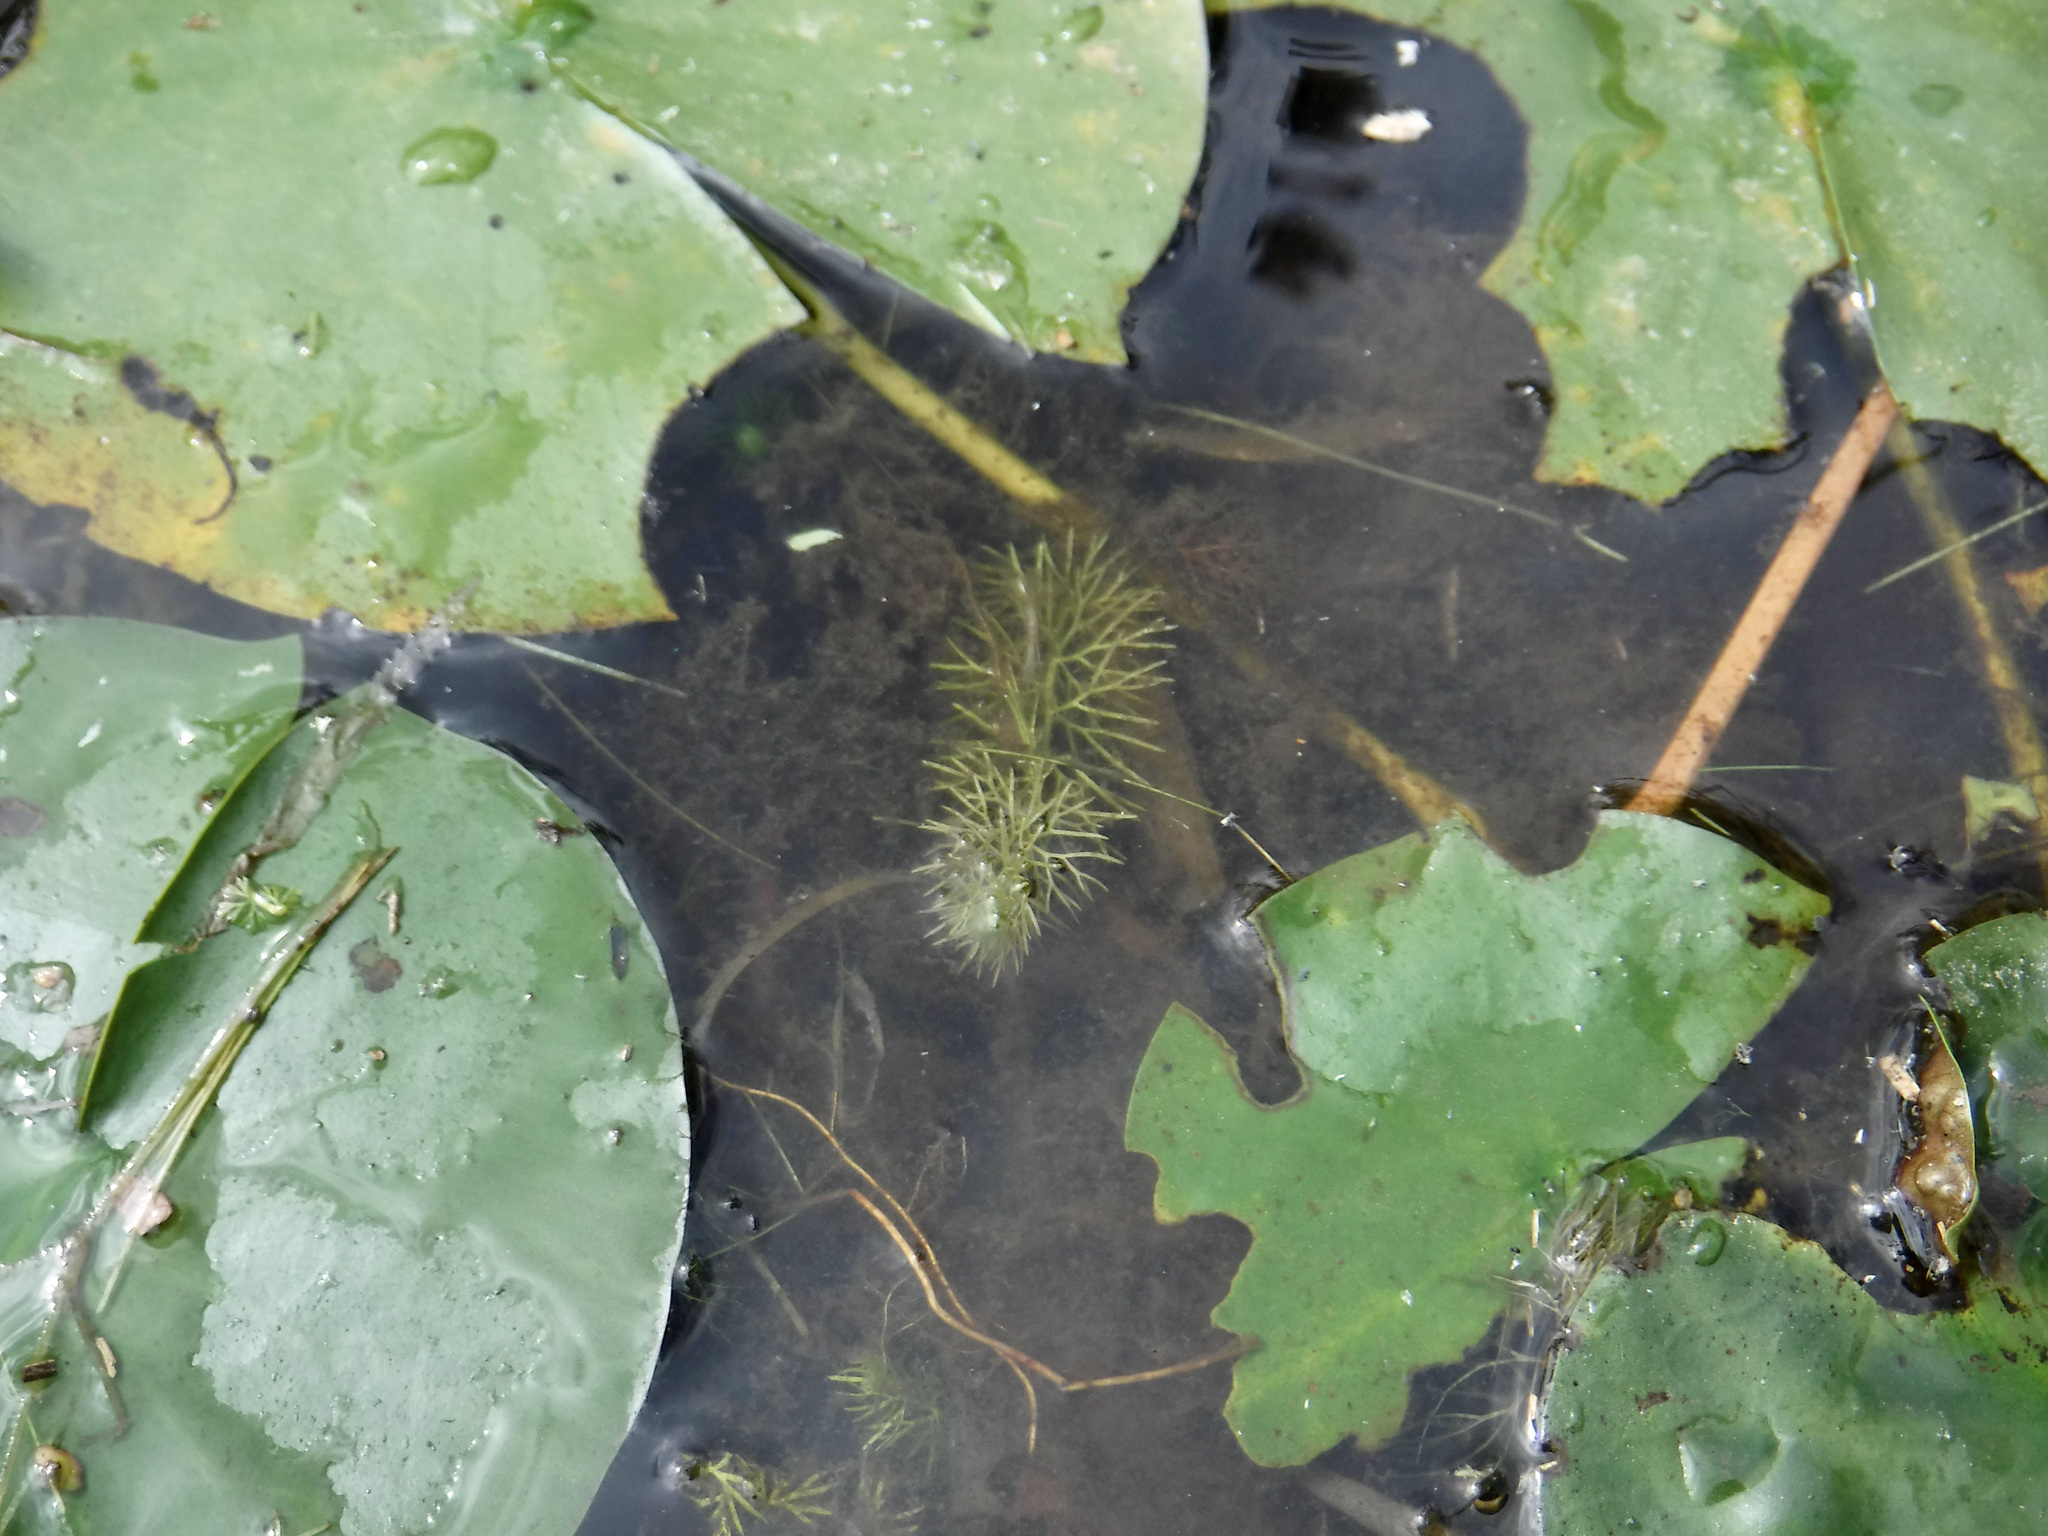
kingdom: Plantae
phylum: Tracheophyta
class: Magnoliopsida
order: Lamiales
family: Lentibulariaceae
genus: Utricularia
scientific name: Utricularia intermedia
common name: Intermediate bladderwort
